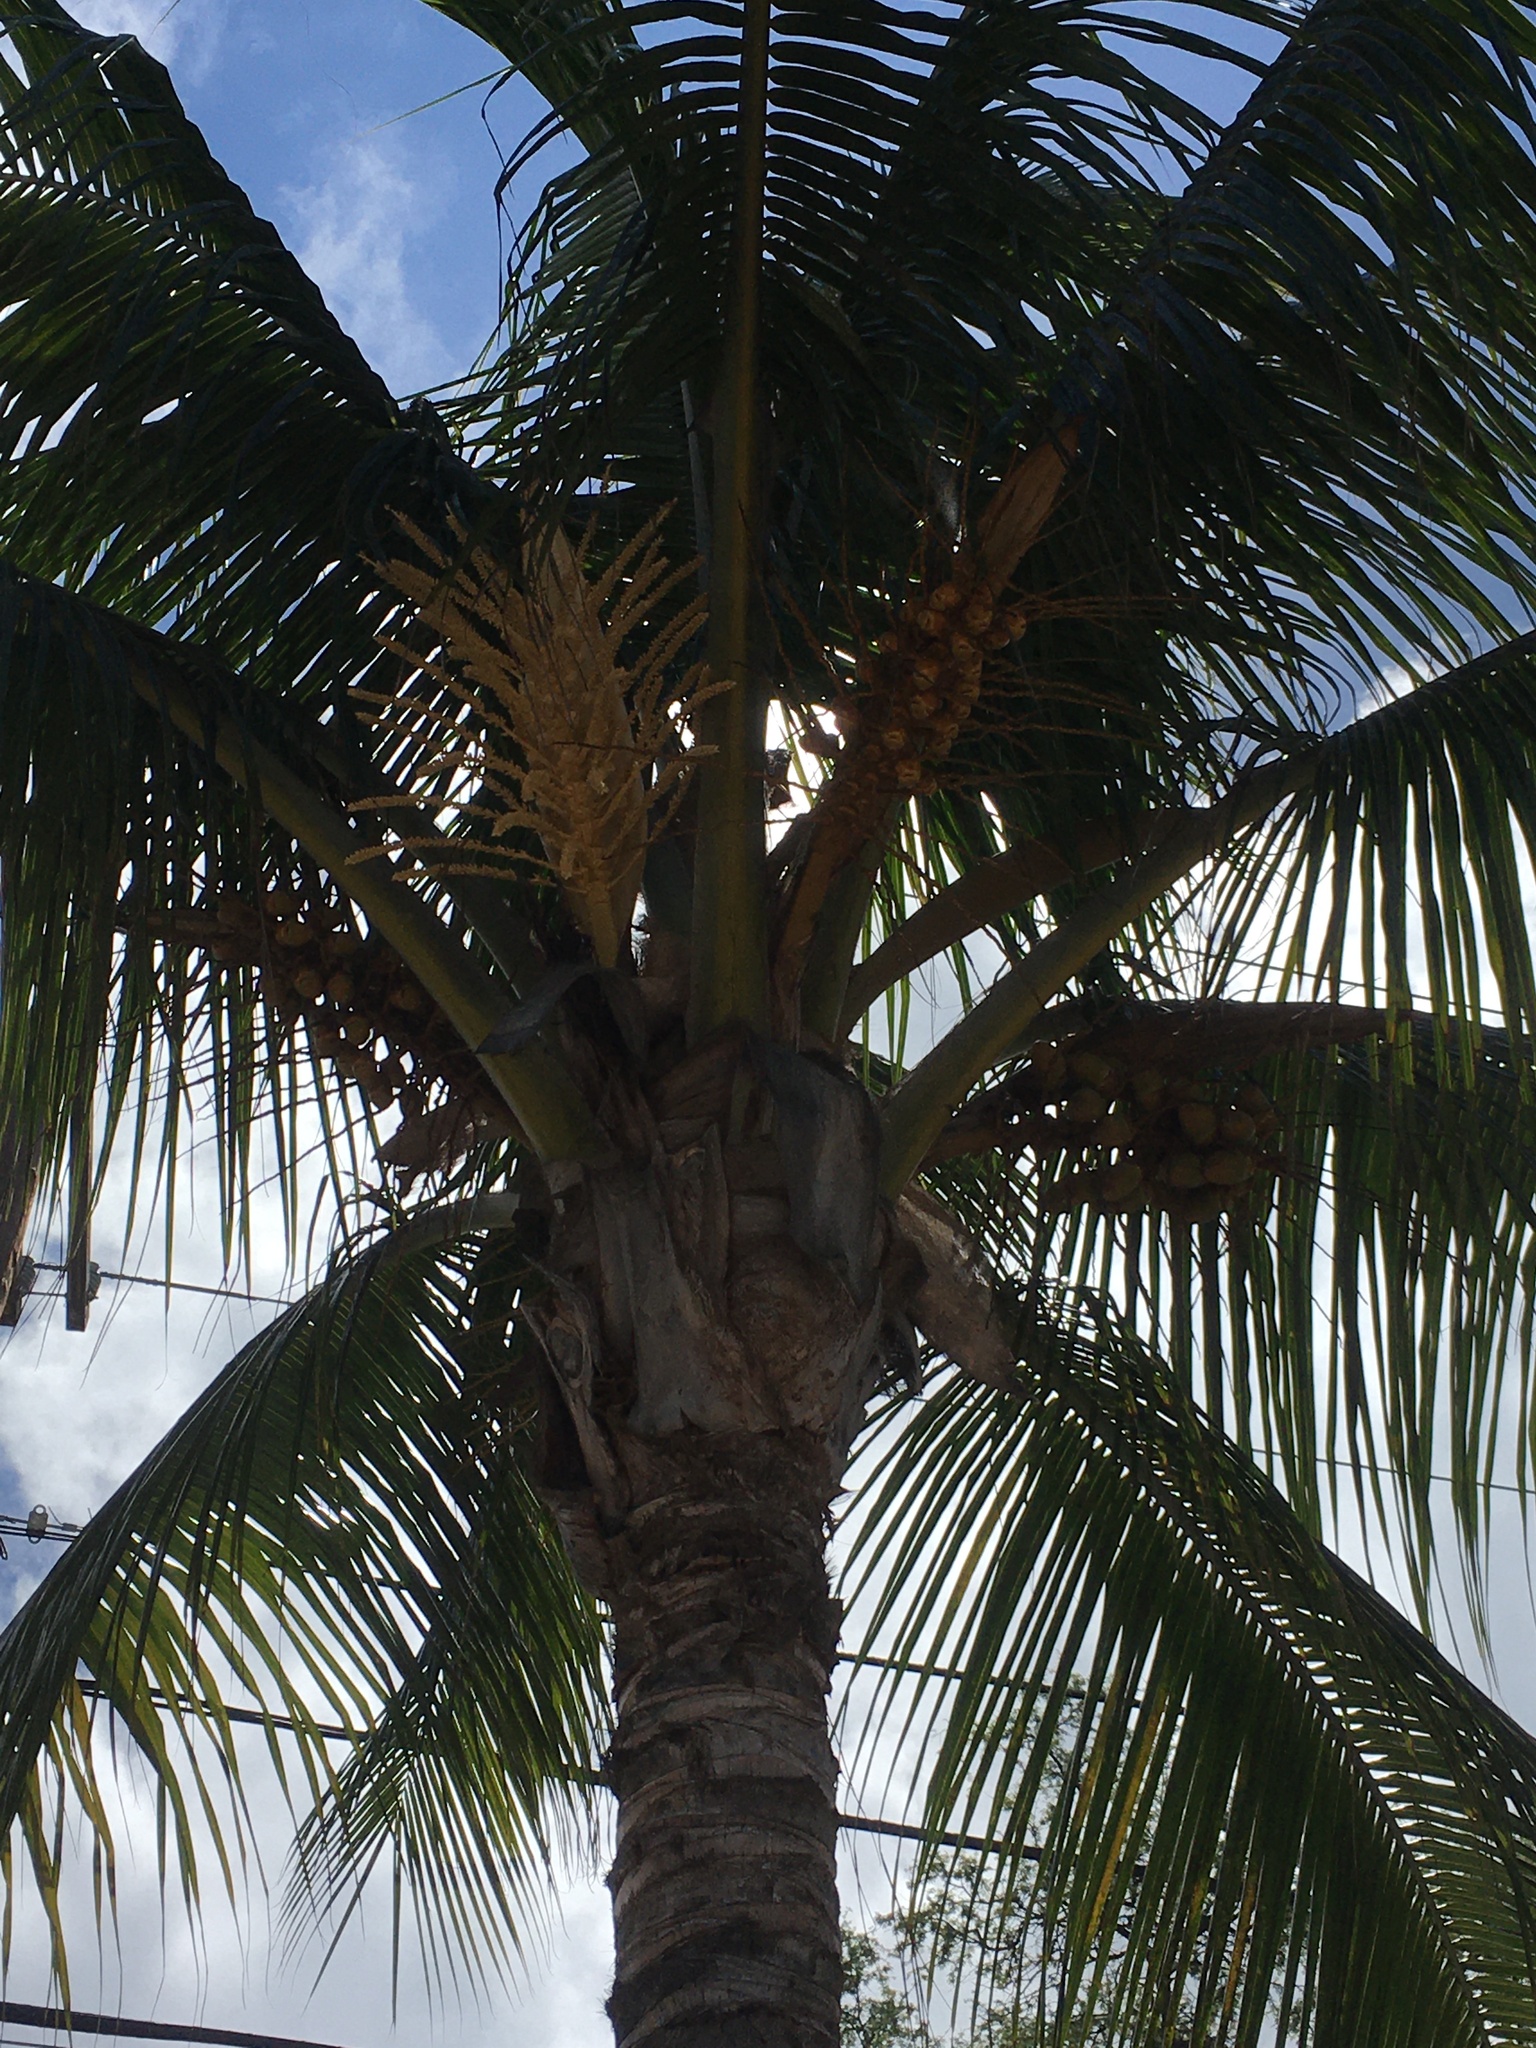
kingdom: Plantae
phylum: Tracheophyta
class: Liliopsida
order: Arecales
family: Arecaceae
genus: Cocos
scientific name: Cocos nucifera
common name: Coconut palm
